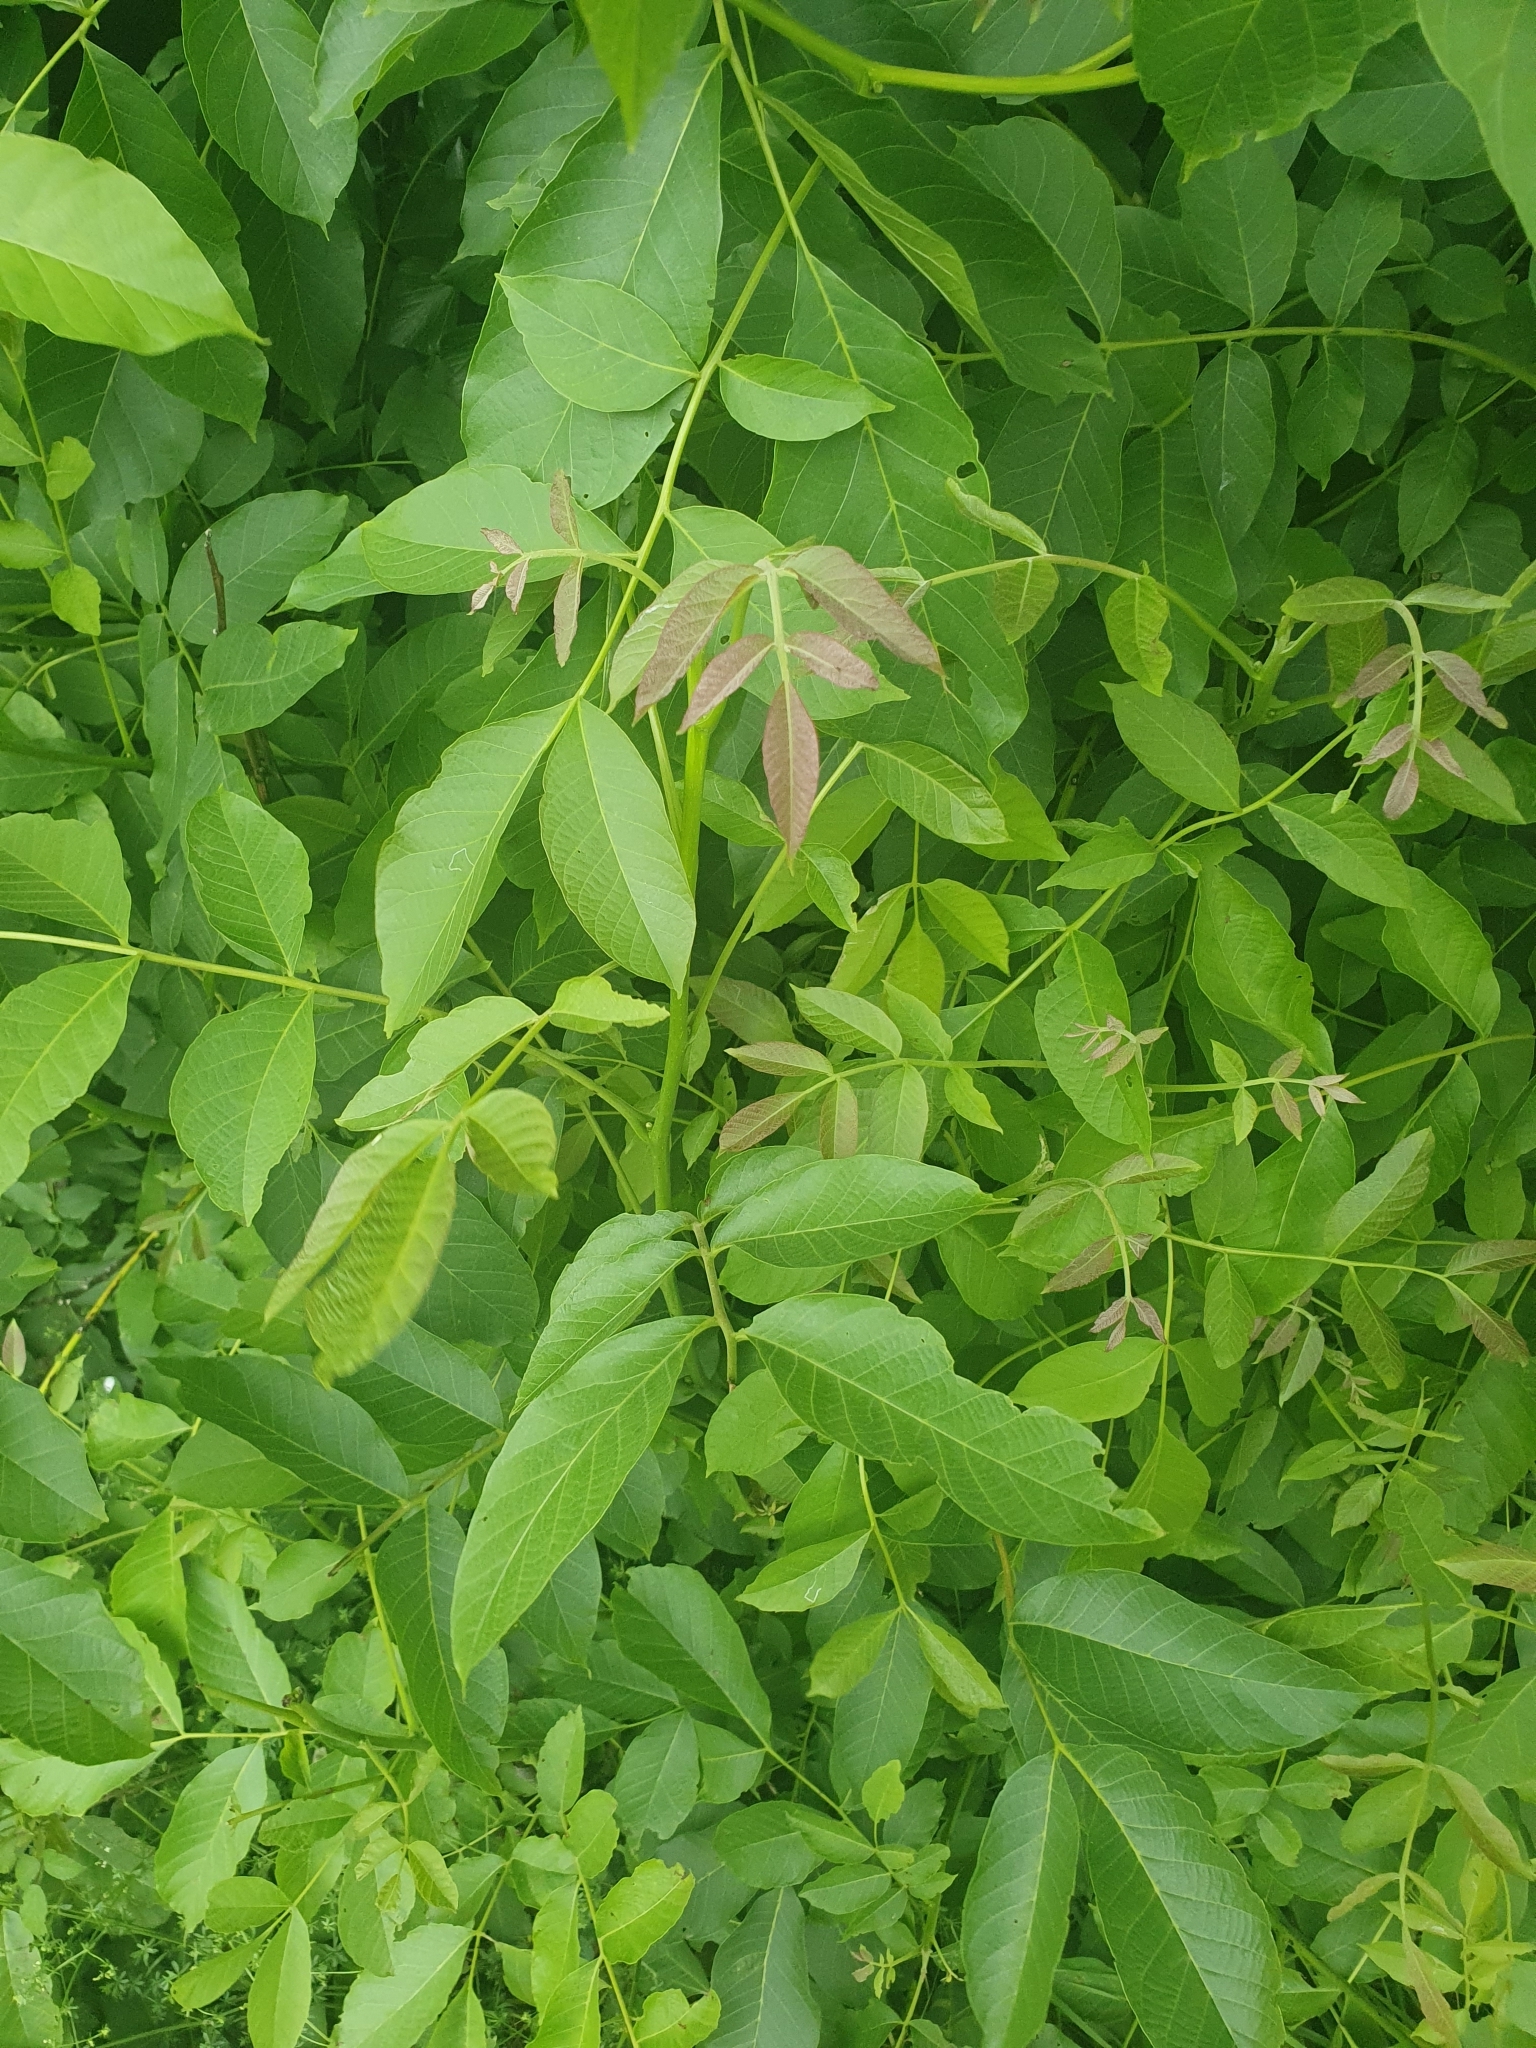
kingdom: Plantae
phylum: Tracheophyta
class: Magnoliopsida
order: Fagales
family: Juglandaceae
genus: Juglans
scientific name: Juglans regia
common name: Walnut
